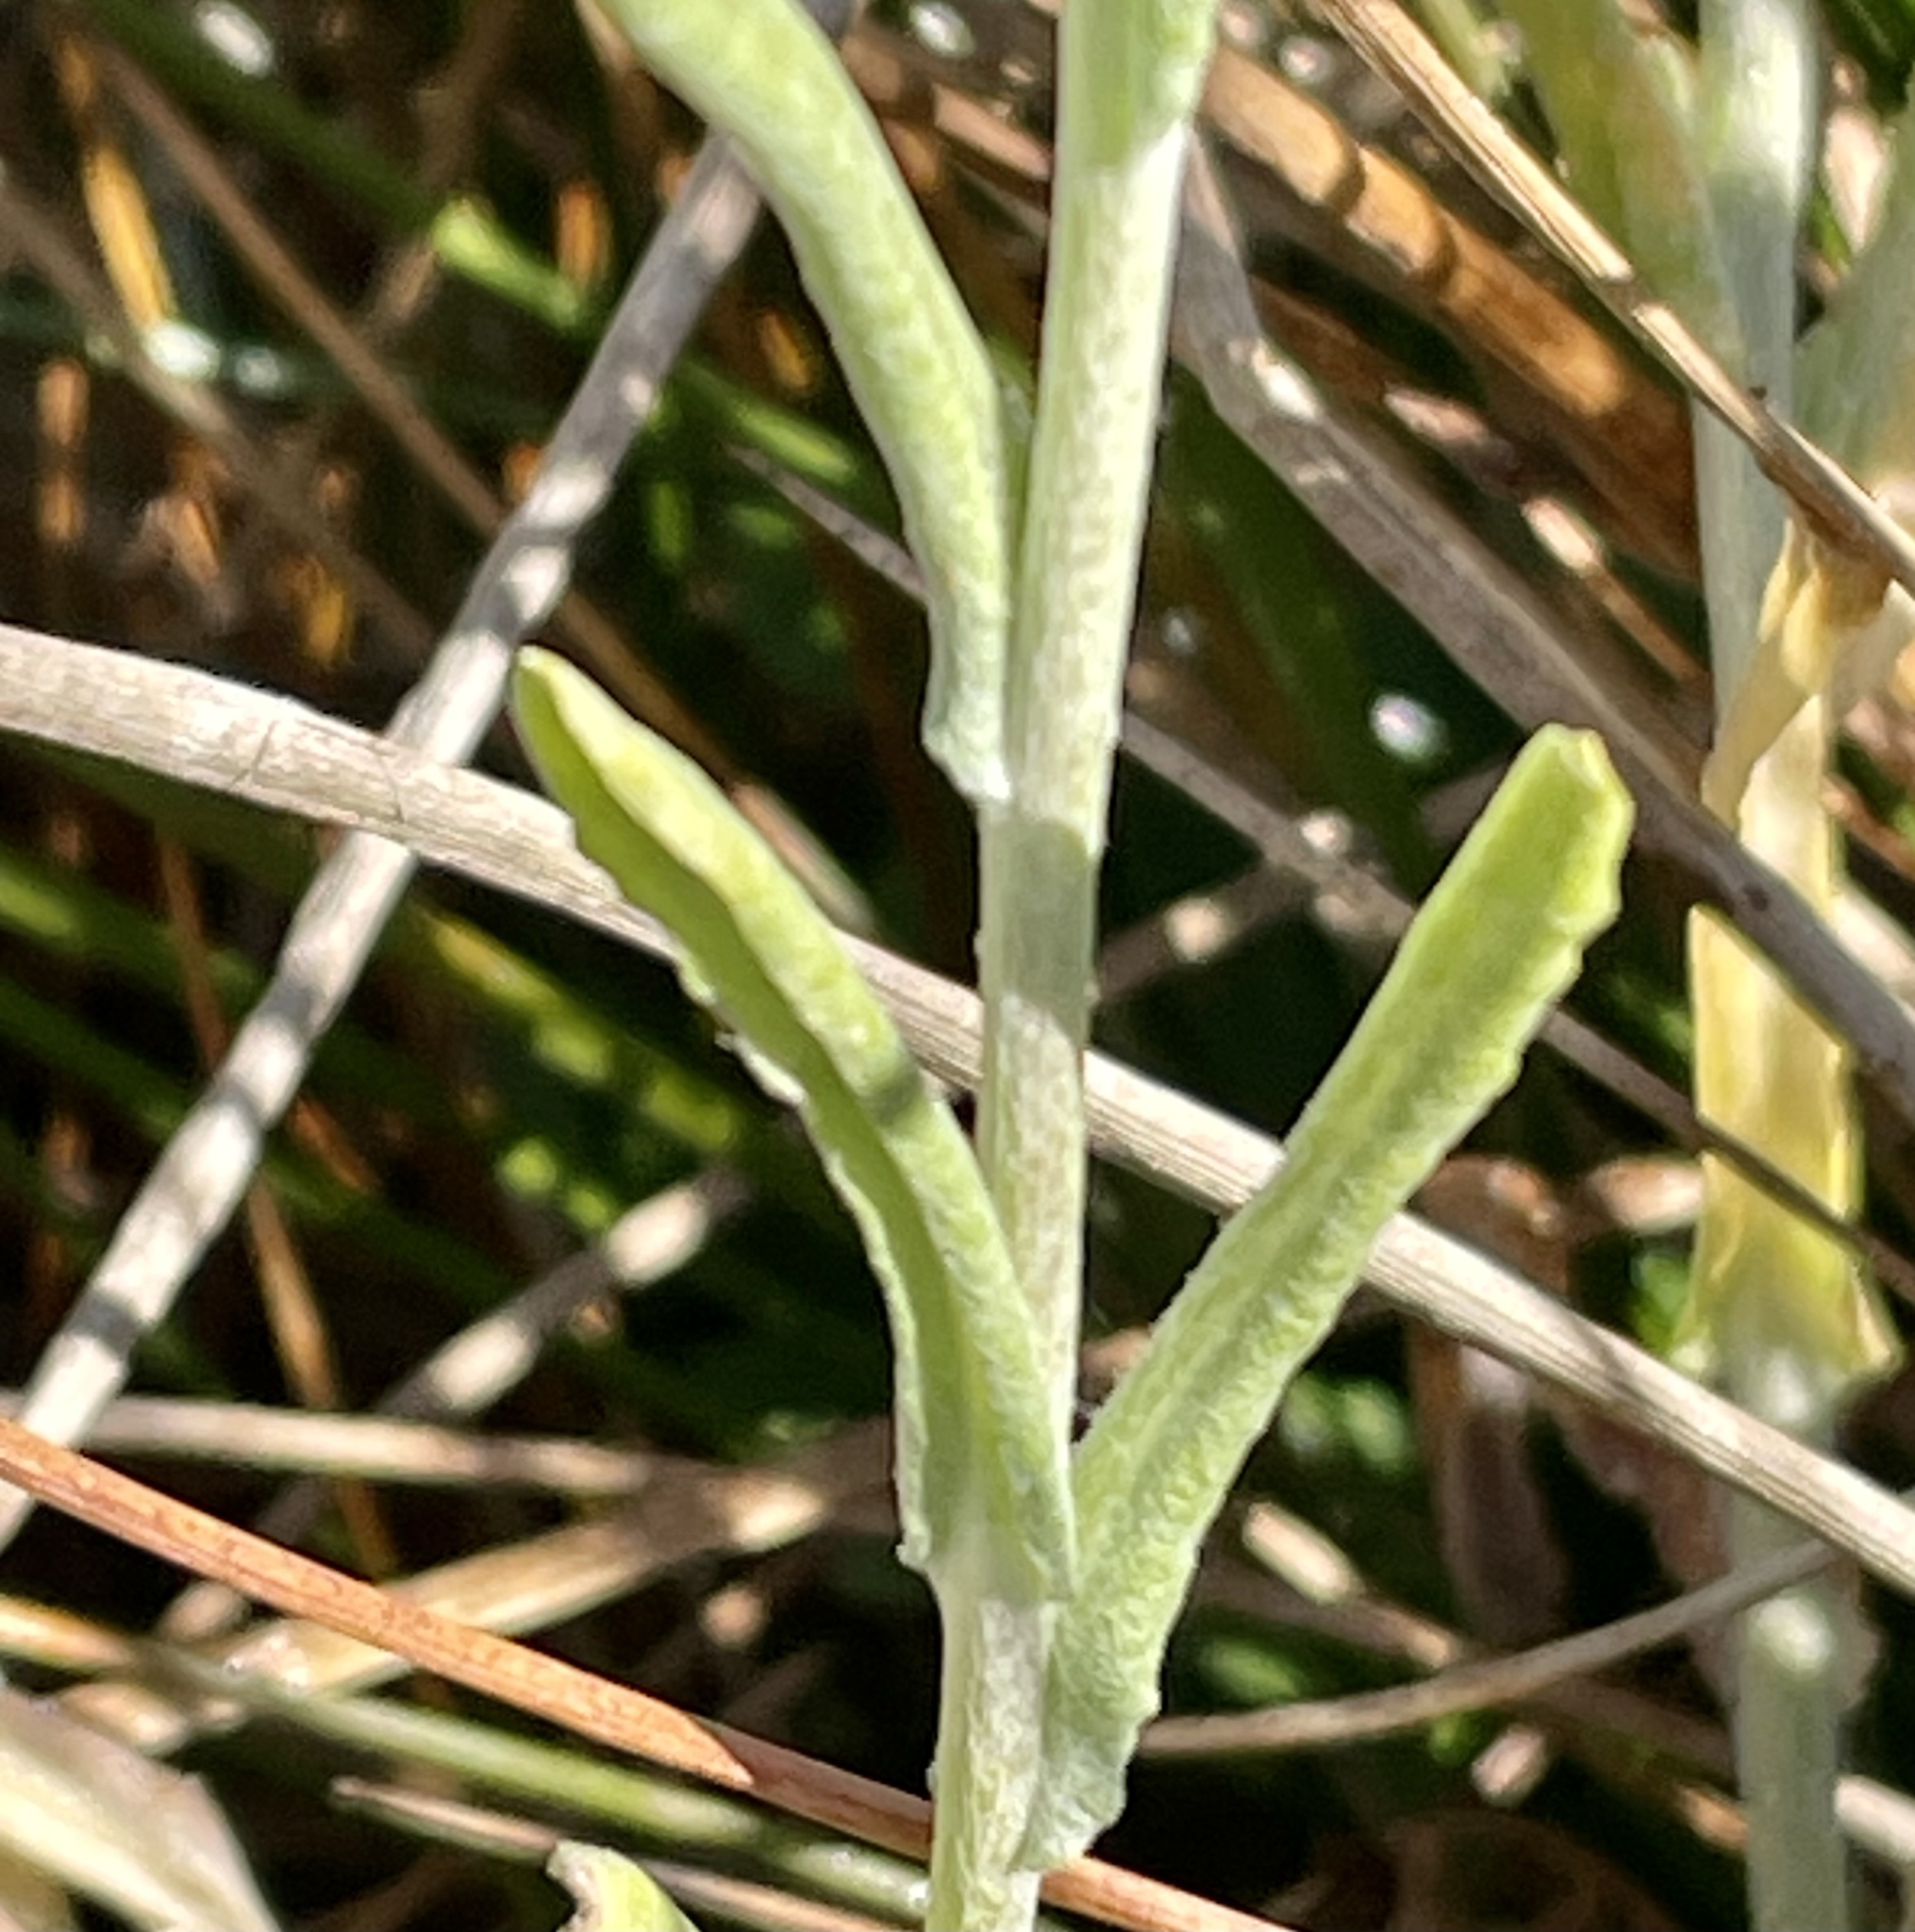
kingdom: Plantae
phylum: Tracheophyta
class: Magnoliopsida
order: Asterales
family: Asteraceae
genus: Helichrysum
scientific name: Helichrysum luteoalbum
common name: Daisy
